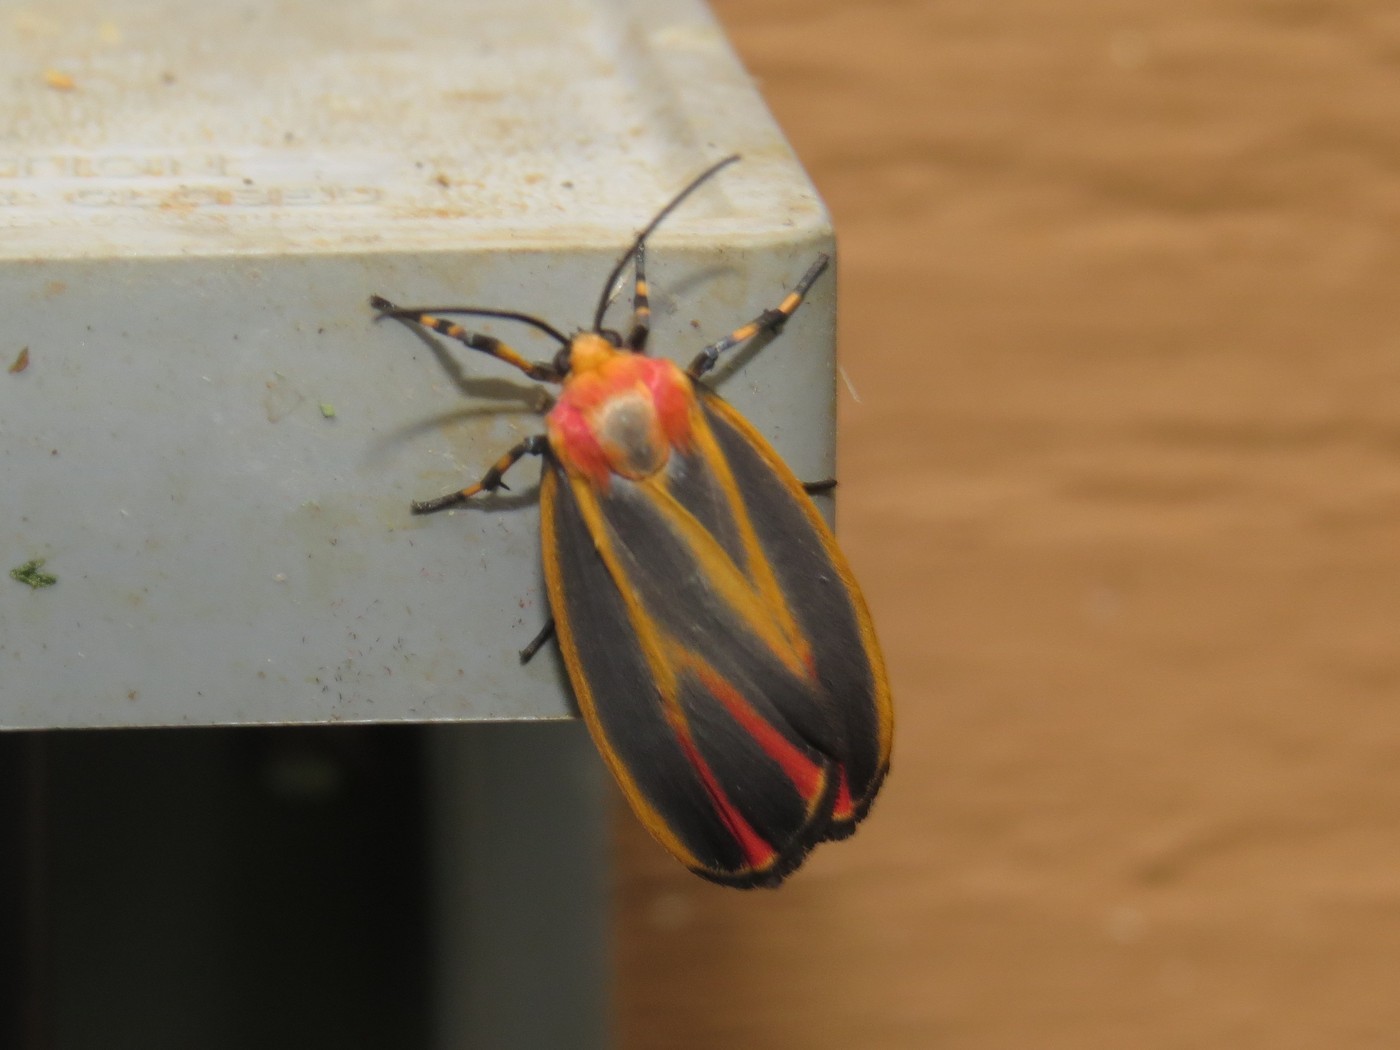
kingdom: Animalia
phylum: Arthropoda
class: Insecta
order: Lepidoptera
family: Erebidae
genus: Hypoprepia
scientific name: Hypoprepia fucosa
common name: Painted lichen moth
